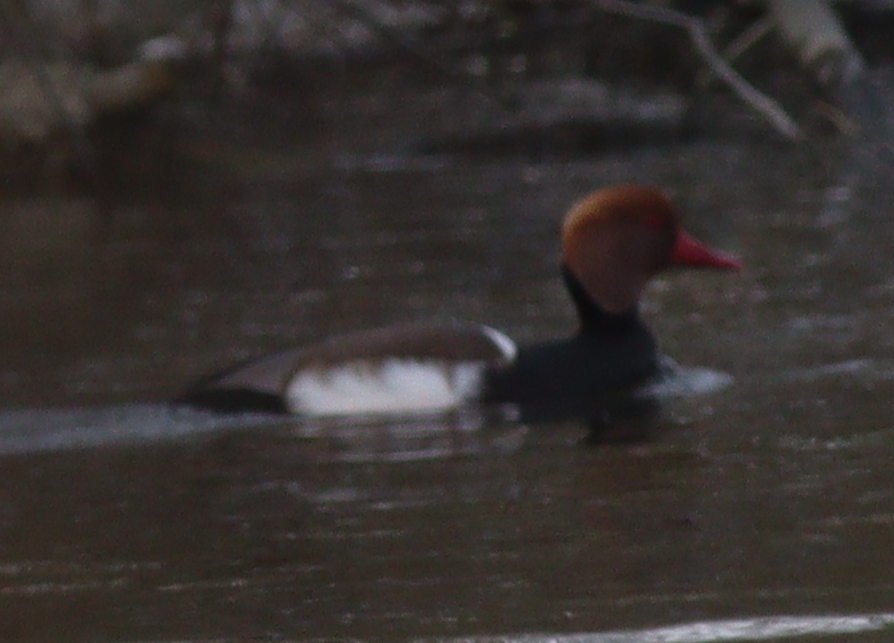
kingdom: Animalia
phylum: Chordata
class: Aves
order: Anseriformes
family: Anatidae
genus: Netta
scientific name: Netta rufina
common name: Red-crested pochard
